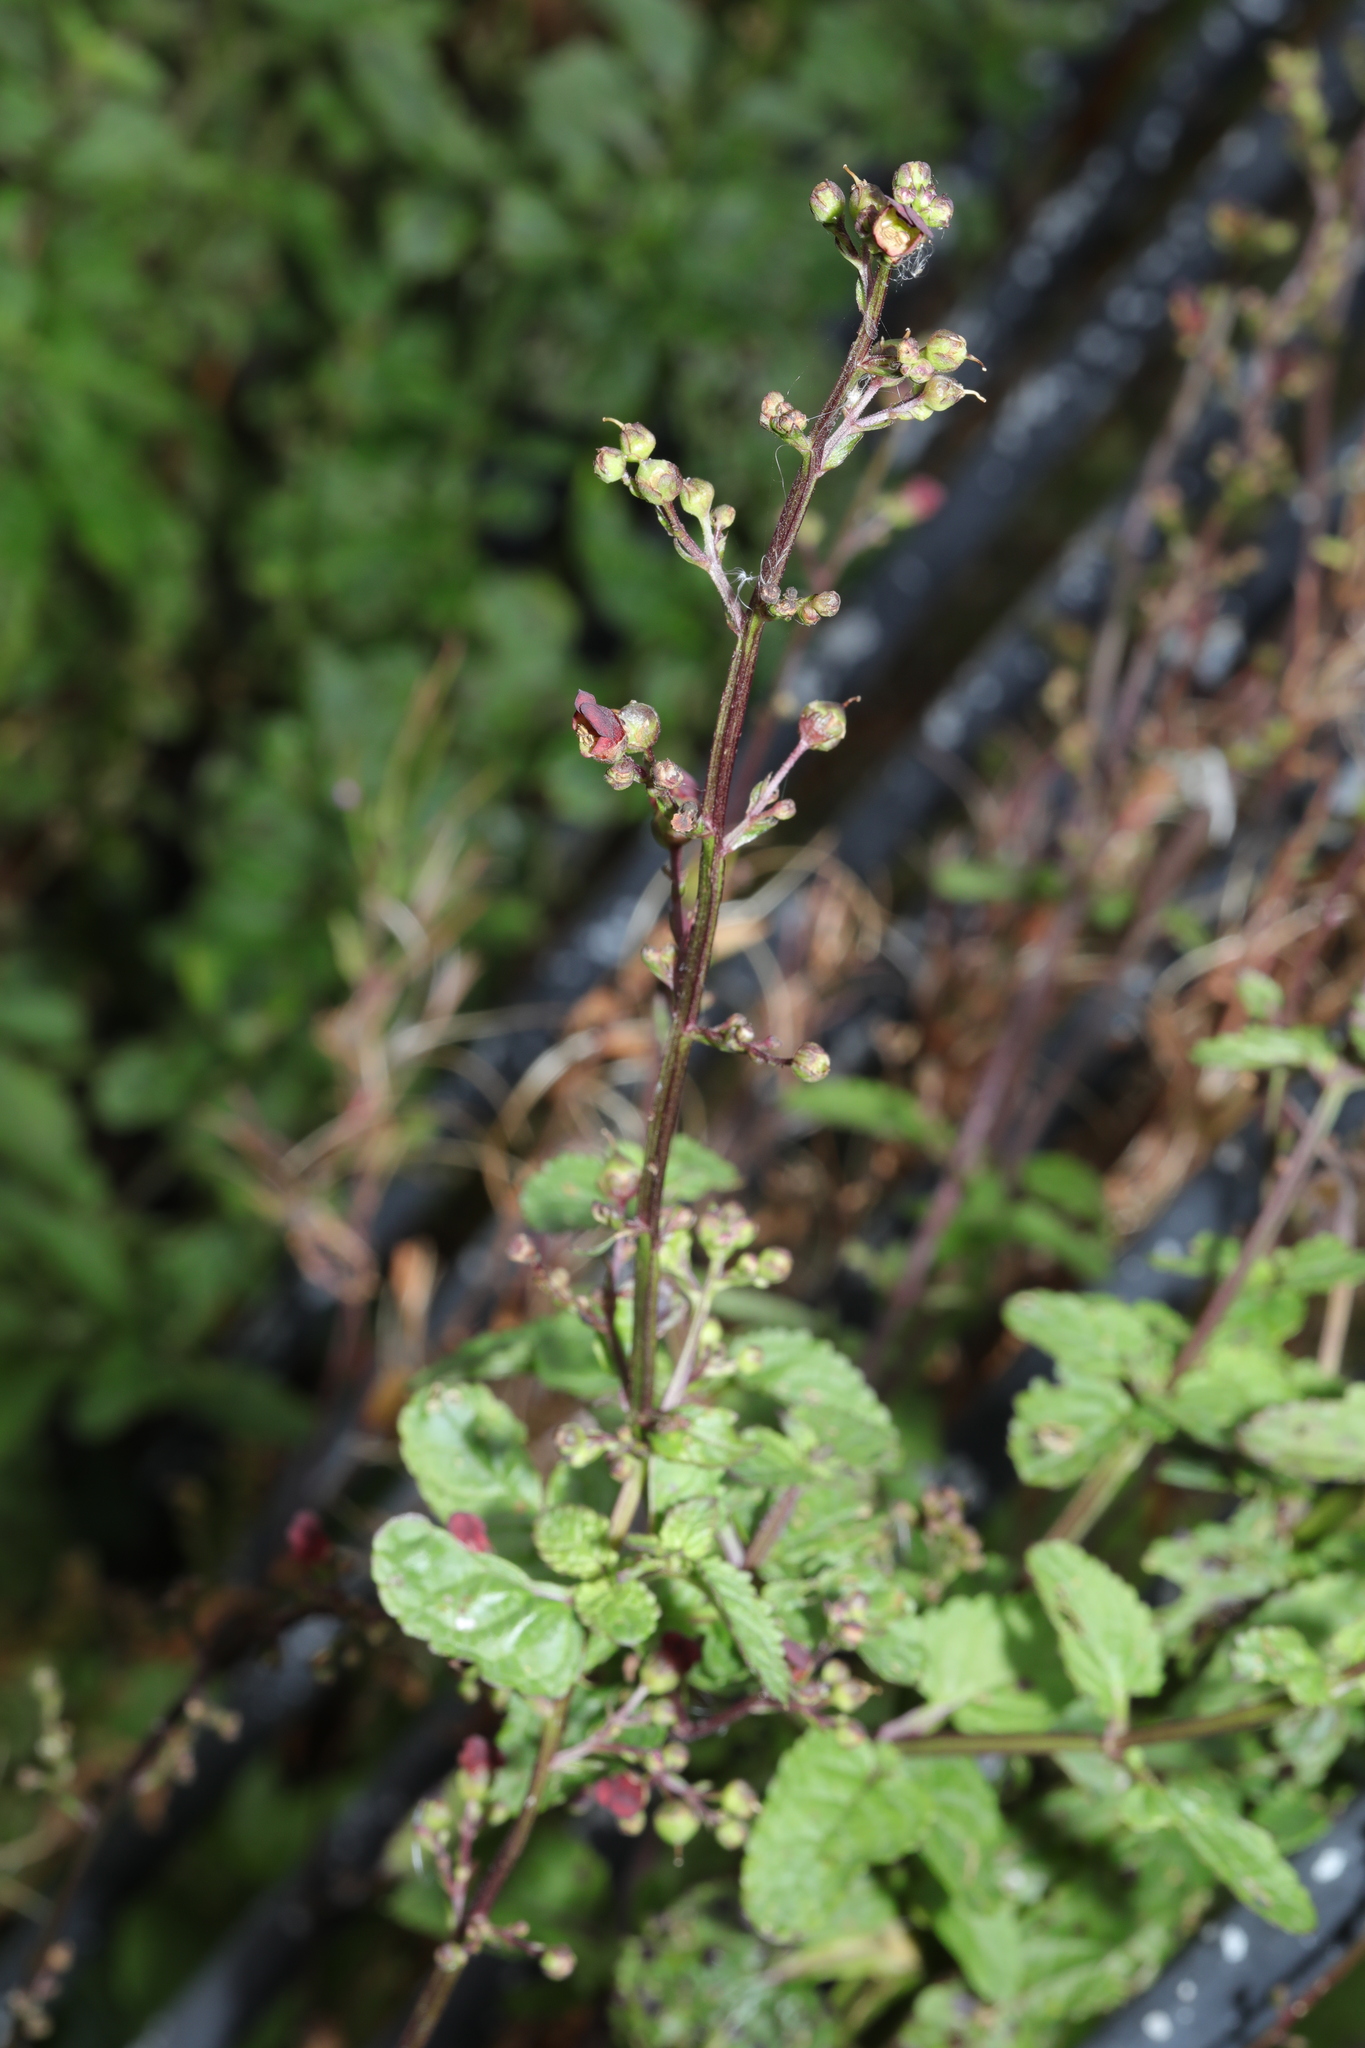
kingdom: Plantae
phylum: Tracheophyta
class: Magnoliopsida
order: Lamiales
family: Scrophulariaceae
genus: Scrophularia
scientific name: Scrophularia auriculata
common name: Water betony
